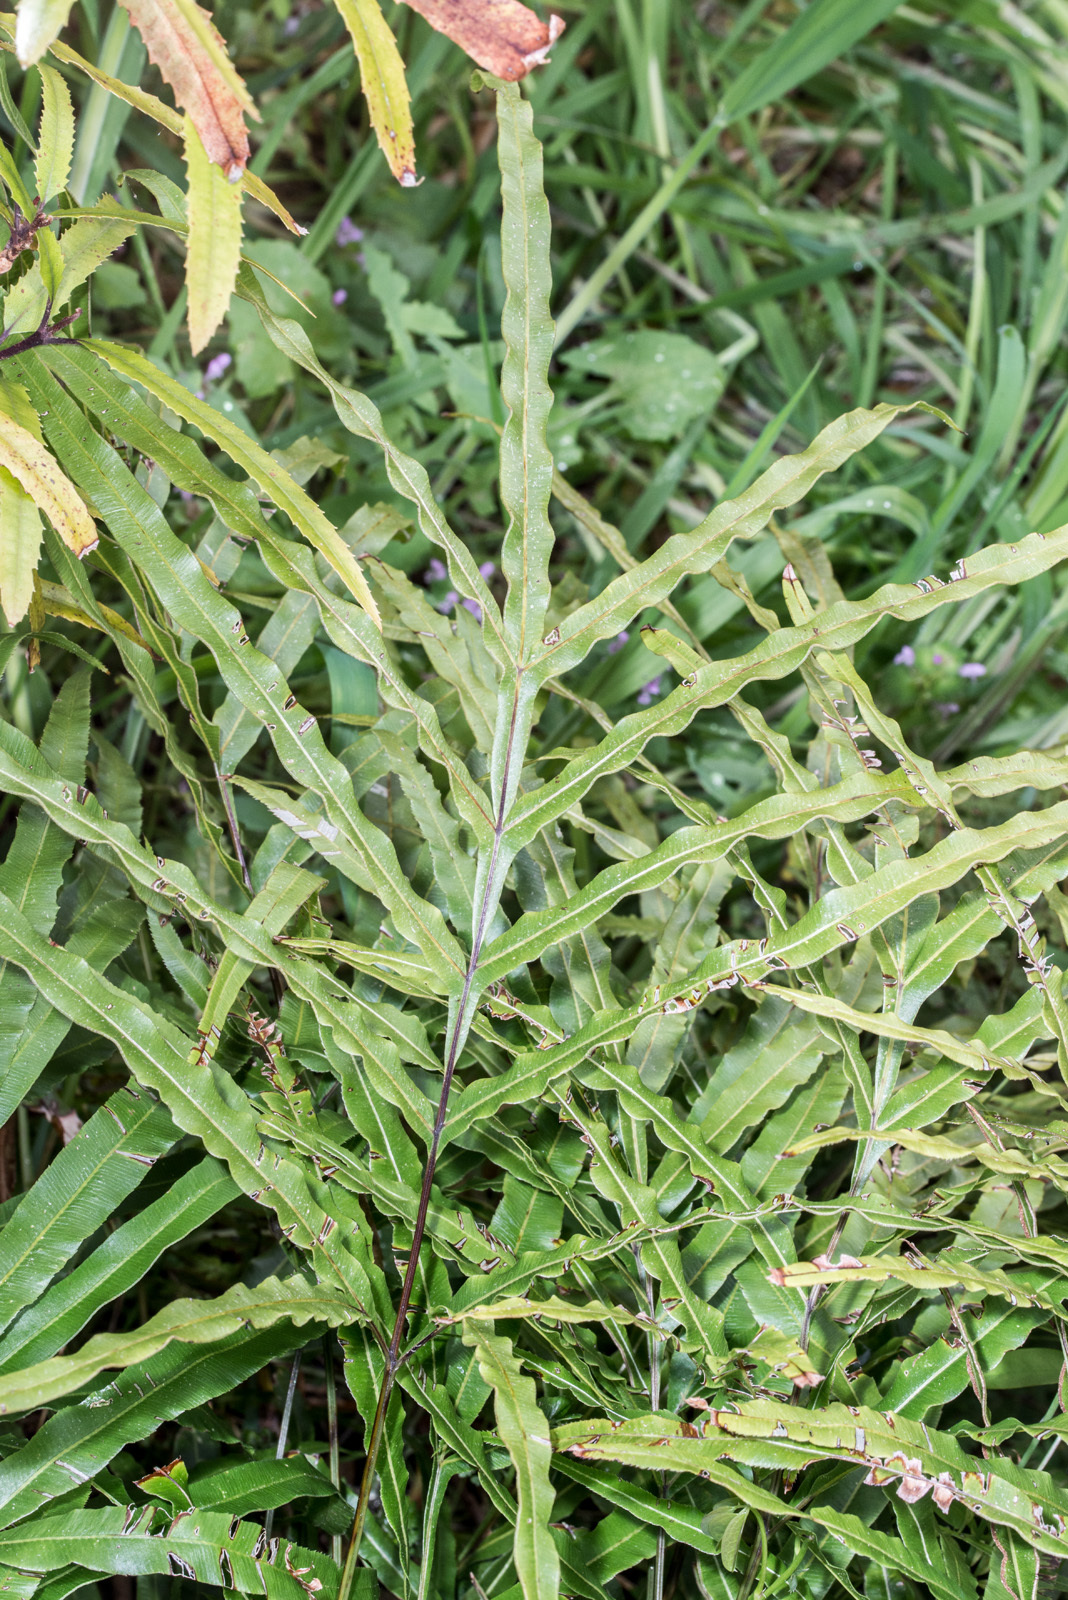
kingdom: Plantae
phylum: Tracheophyta
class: Polypodiopsida
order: Polypodiales
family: Pteridaceae
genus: Pteris
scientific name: Pteris cretica
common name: Ribbon fern
